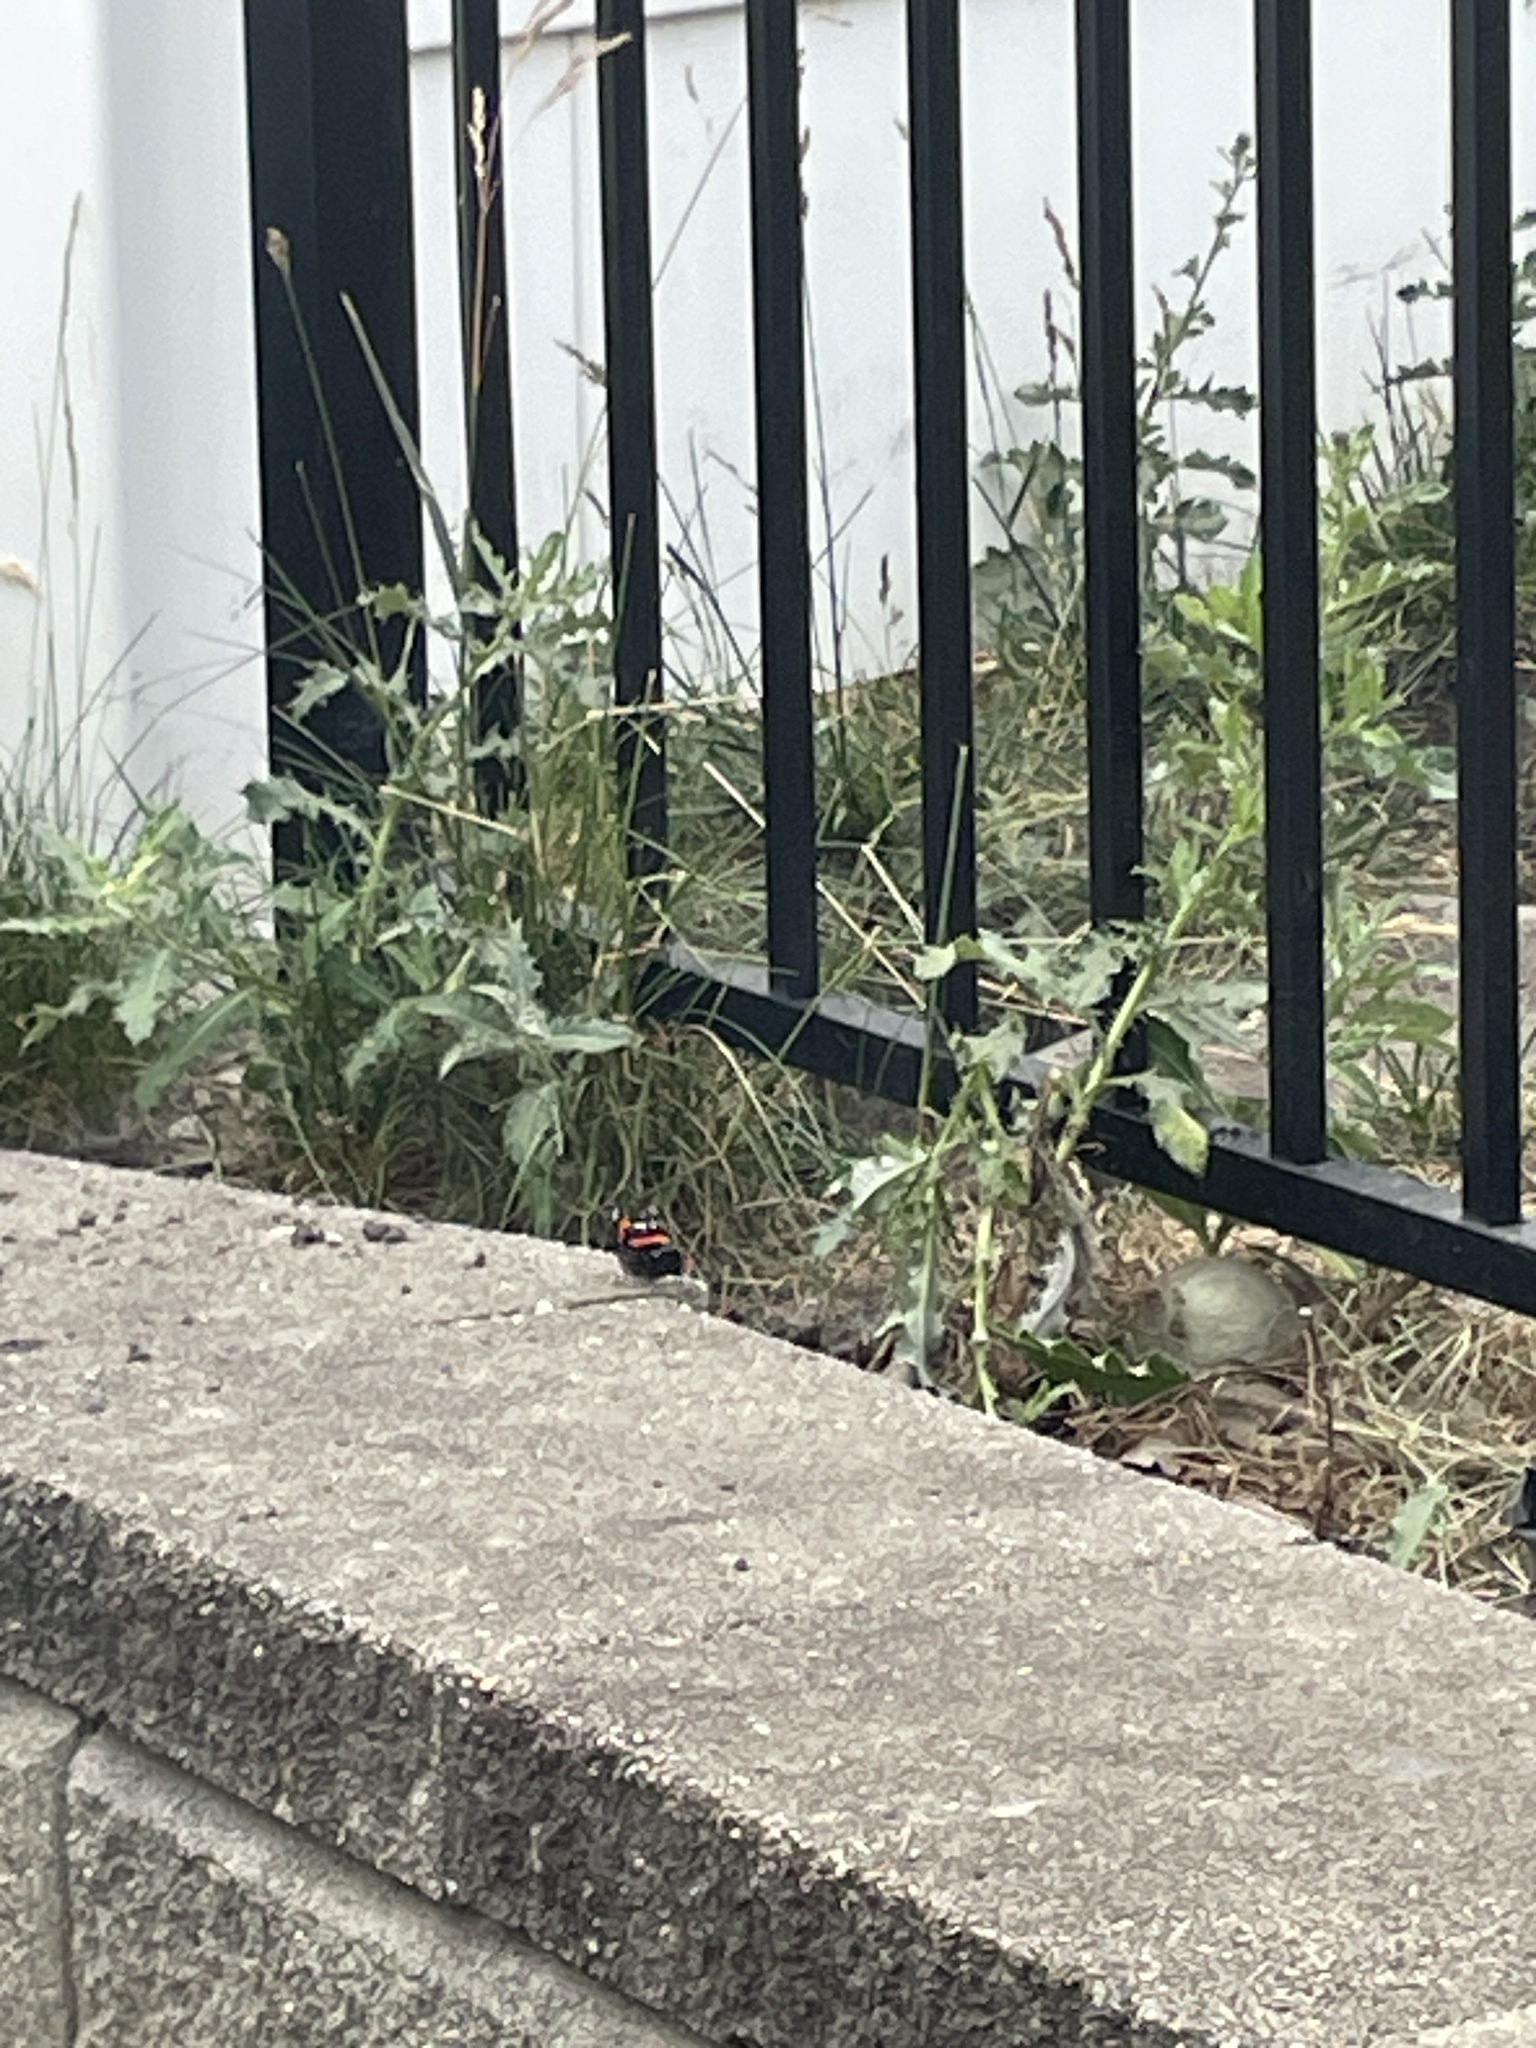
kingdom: Animalia
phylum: Arthropoda
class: Insecta
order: Lepidoptera
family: Nymphalidae
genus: Vanessa
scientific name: Vanessa atalanta
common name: Red admiral
